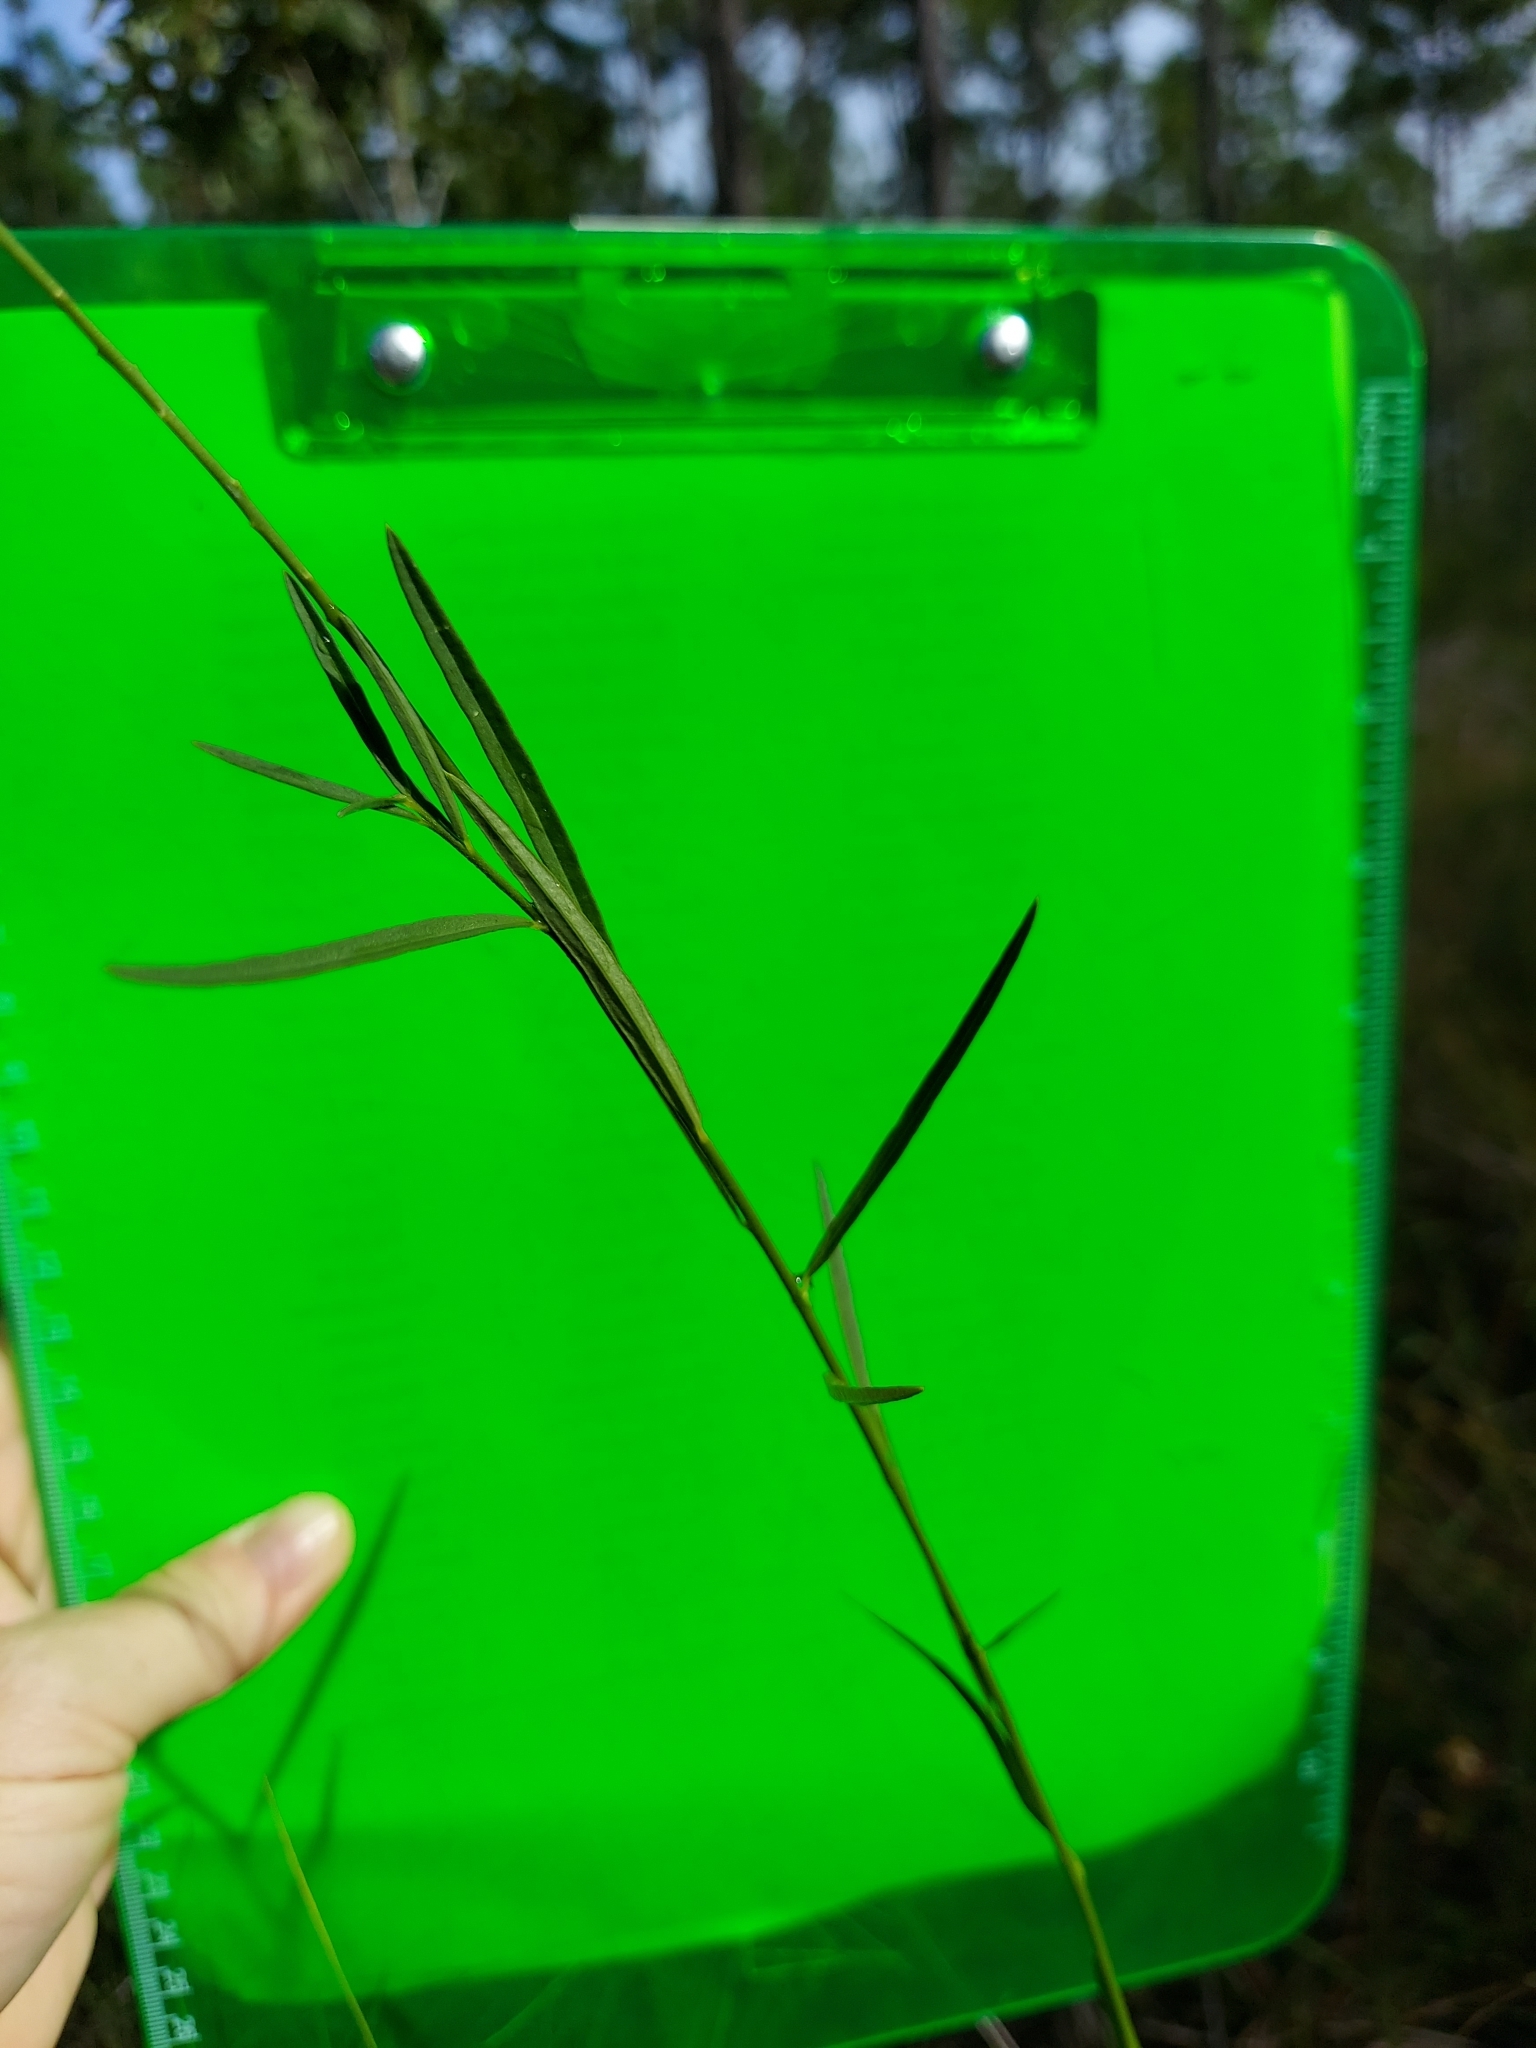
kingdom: Plantae
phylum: Tracheophyta
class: Magnoliopsida
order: Fabales
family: Polygalaceae
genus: Asemeia
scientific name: Asemeia grandiflora
